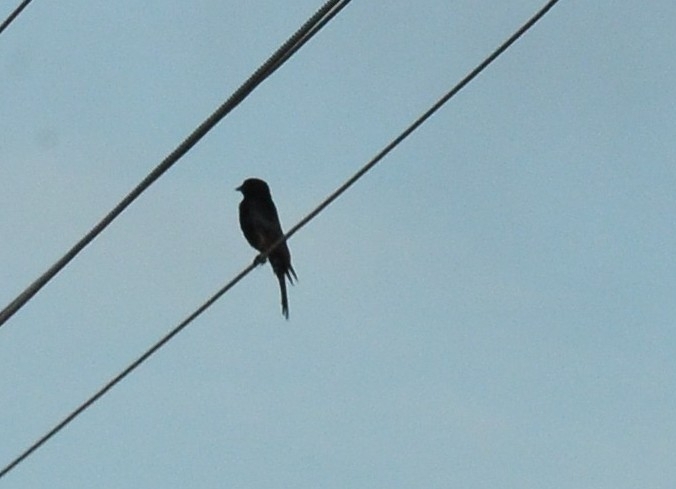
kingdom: Animalia
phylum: Chordata
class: Aves
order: Passeriformes
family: Dicruridae
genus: Dicrurus
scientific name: Dicrurus macrocercus
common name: Black drongo
